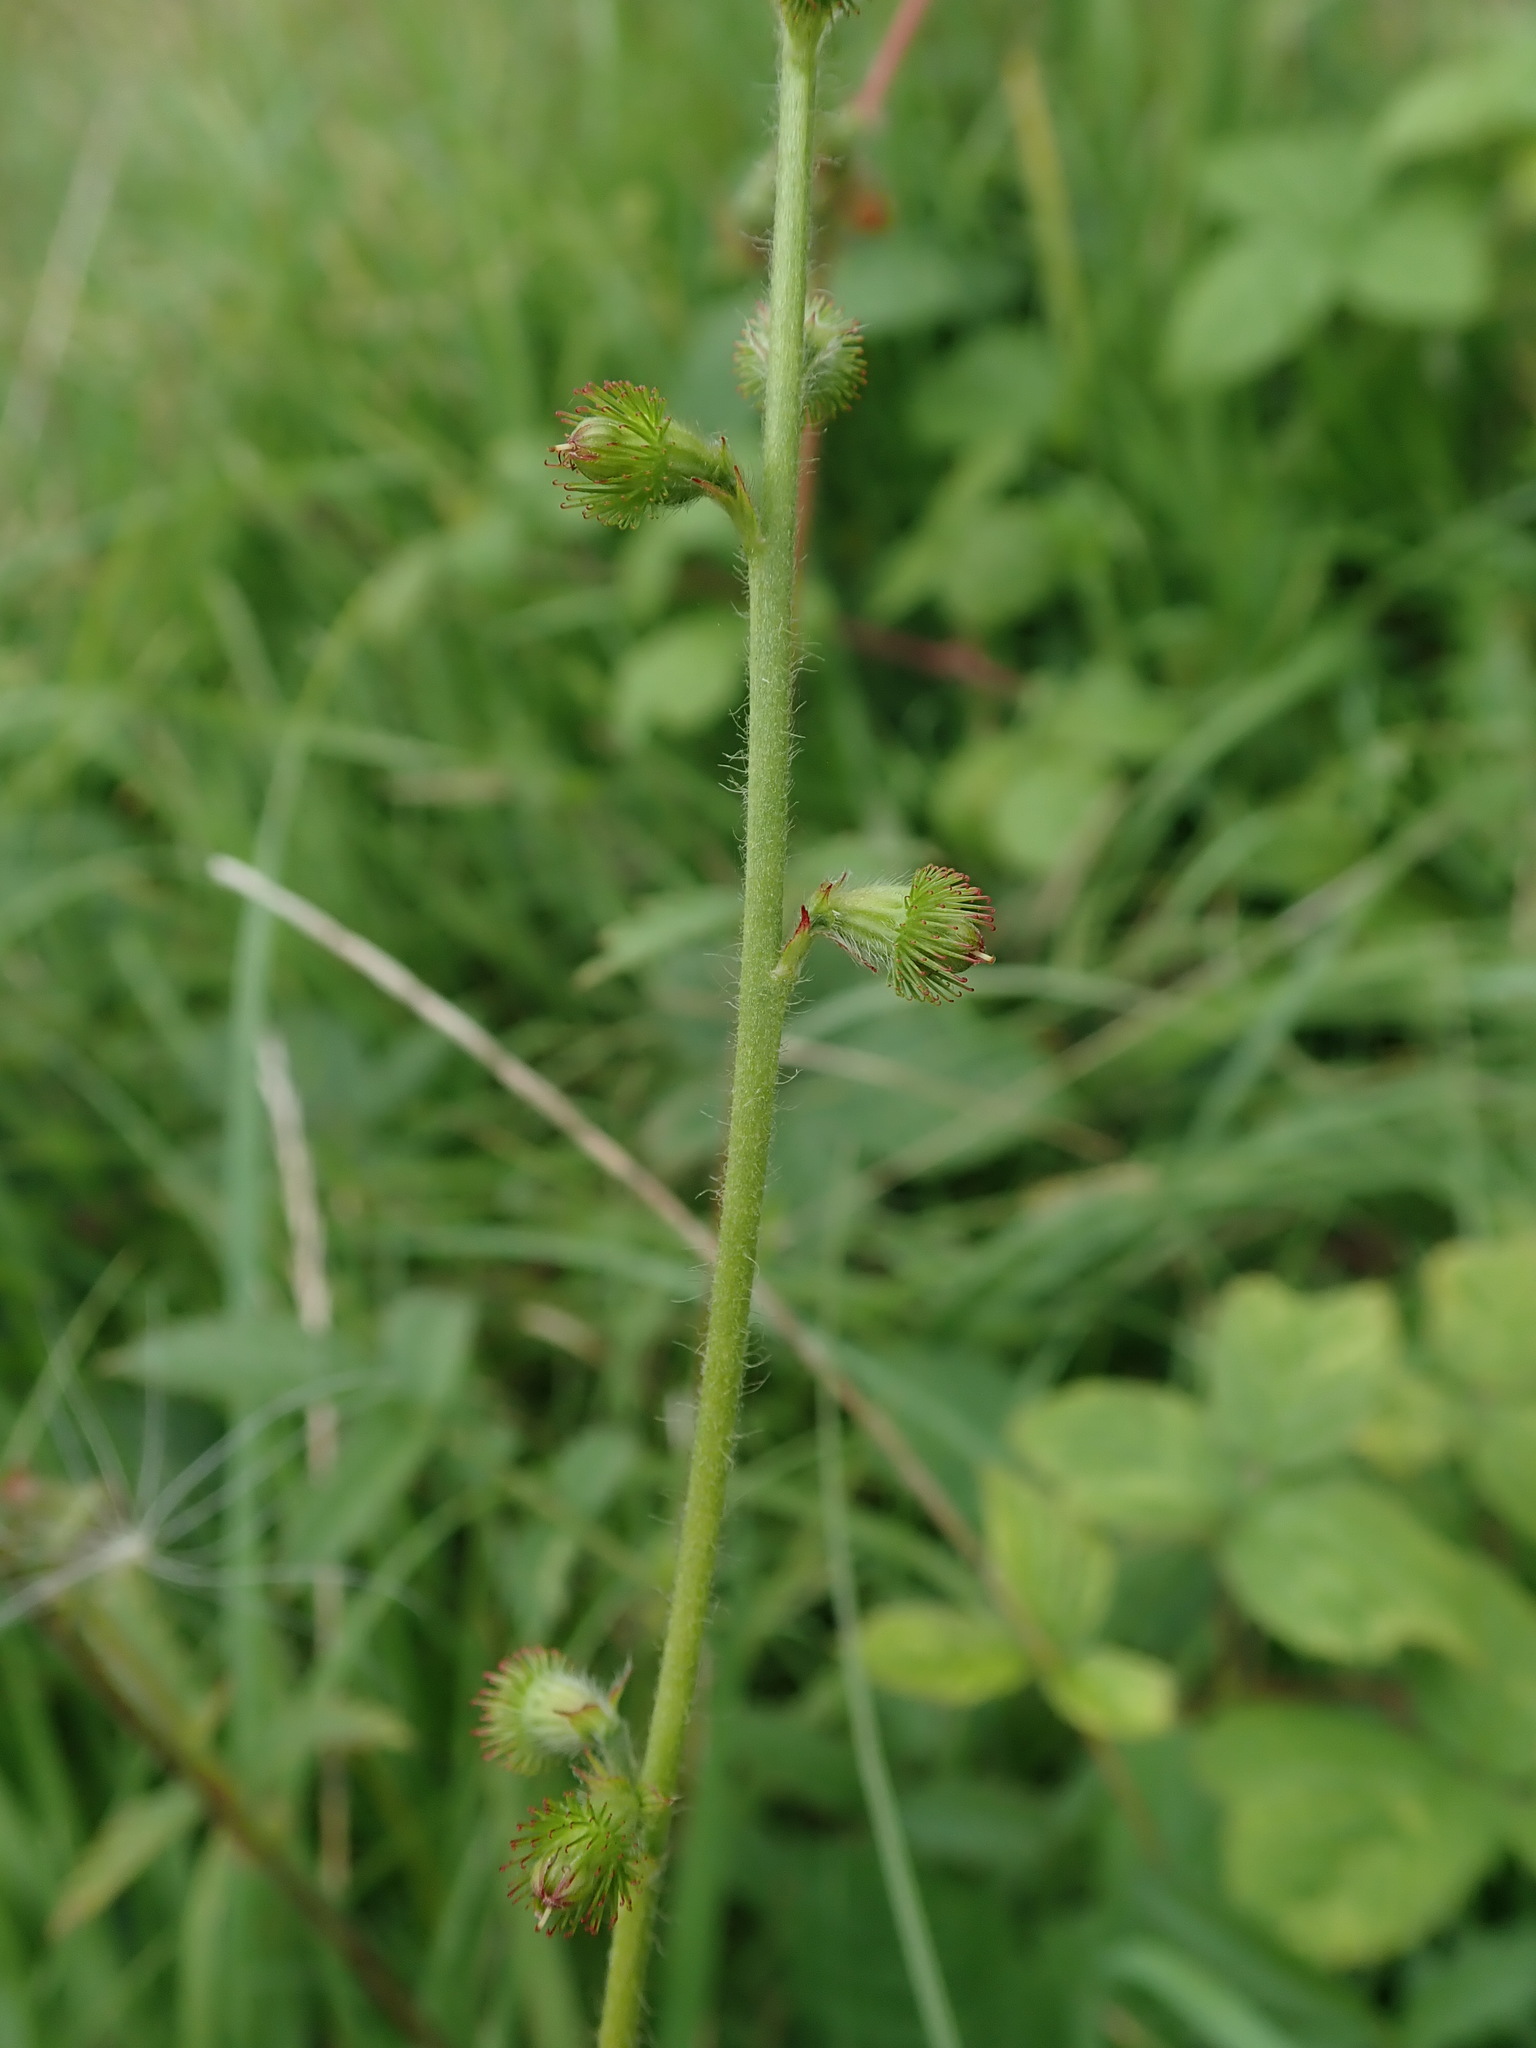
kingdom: Plantae
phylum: Tracheophyta
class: Magnoliopsida
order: Rosales
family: Rosaceae
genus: Agrimonia
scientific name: Agrimonia eupatoria
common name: Agrimony
